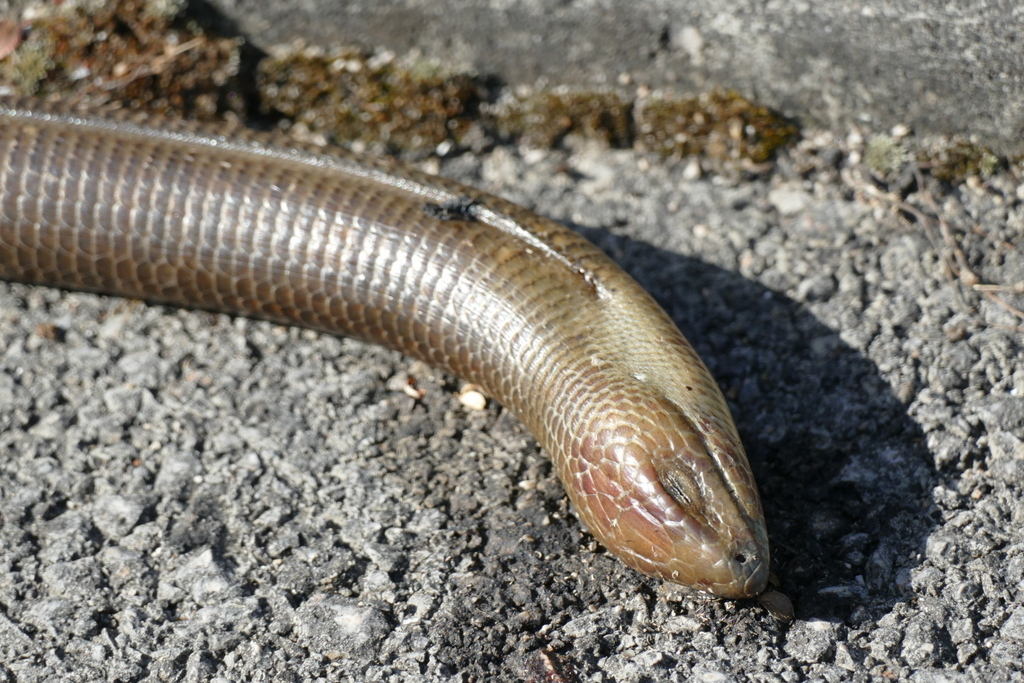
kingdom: Animalia
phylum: Chordata
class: Squamata
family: Anguidae
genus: Pseudopus
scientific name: Pseudopus apodus
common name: European glass lizard
